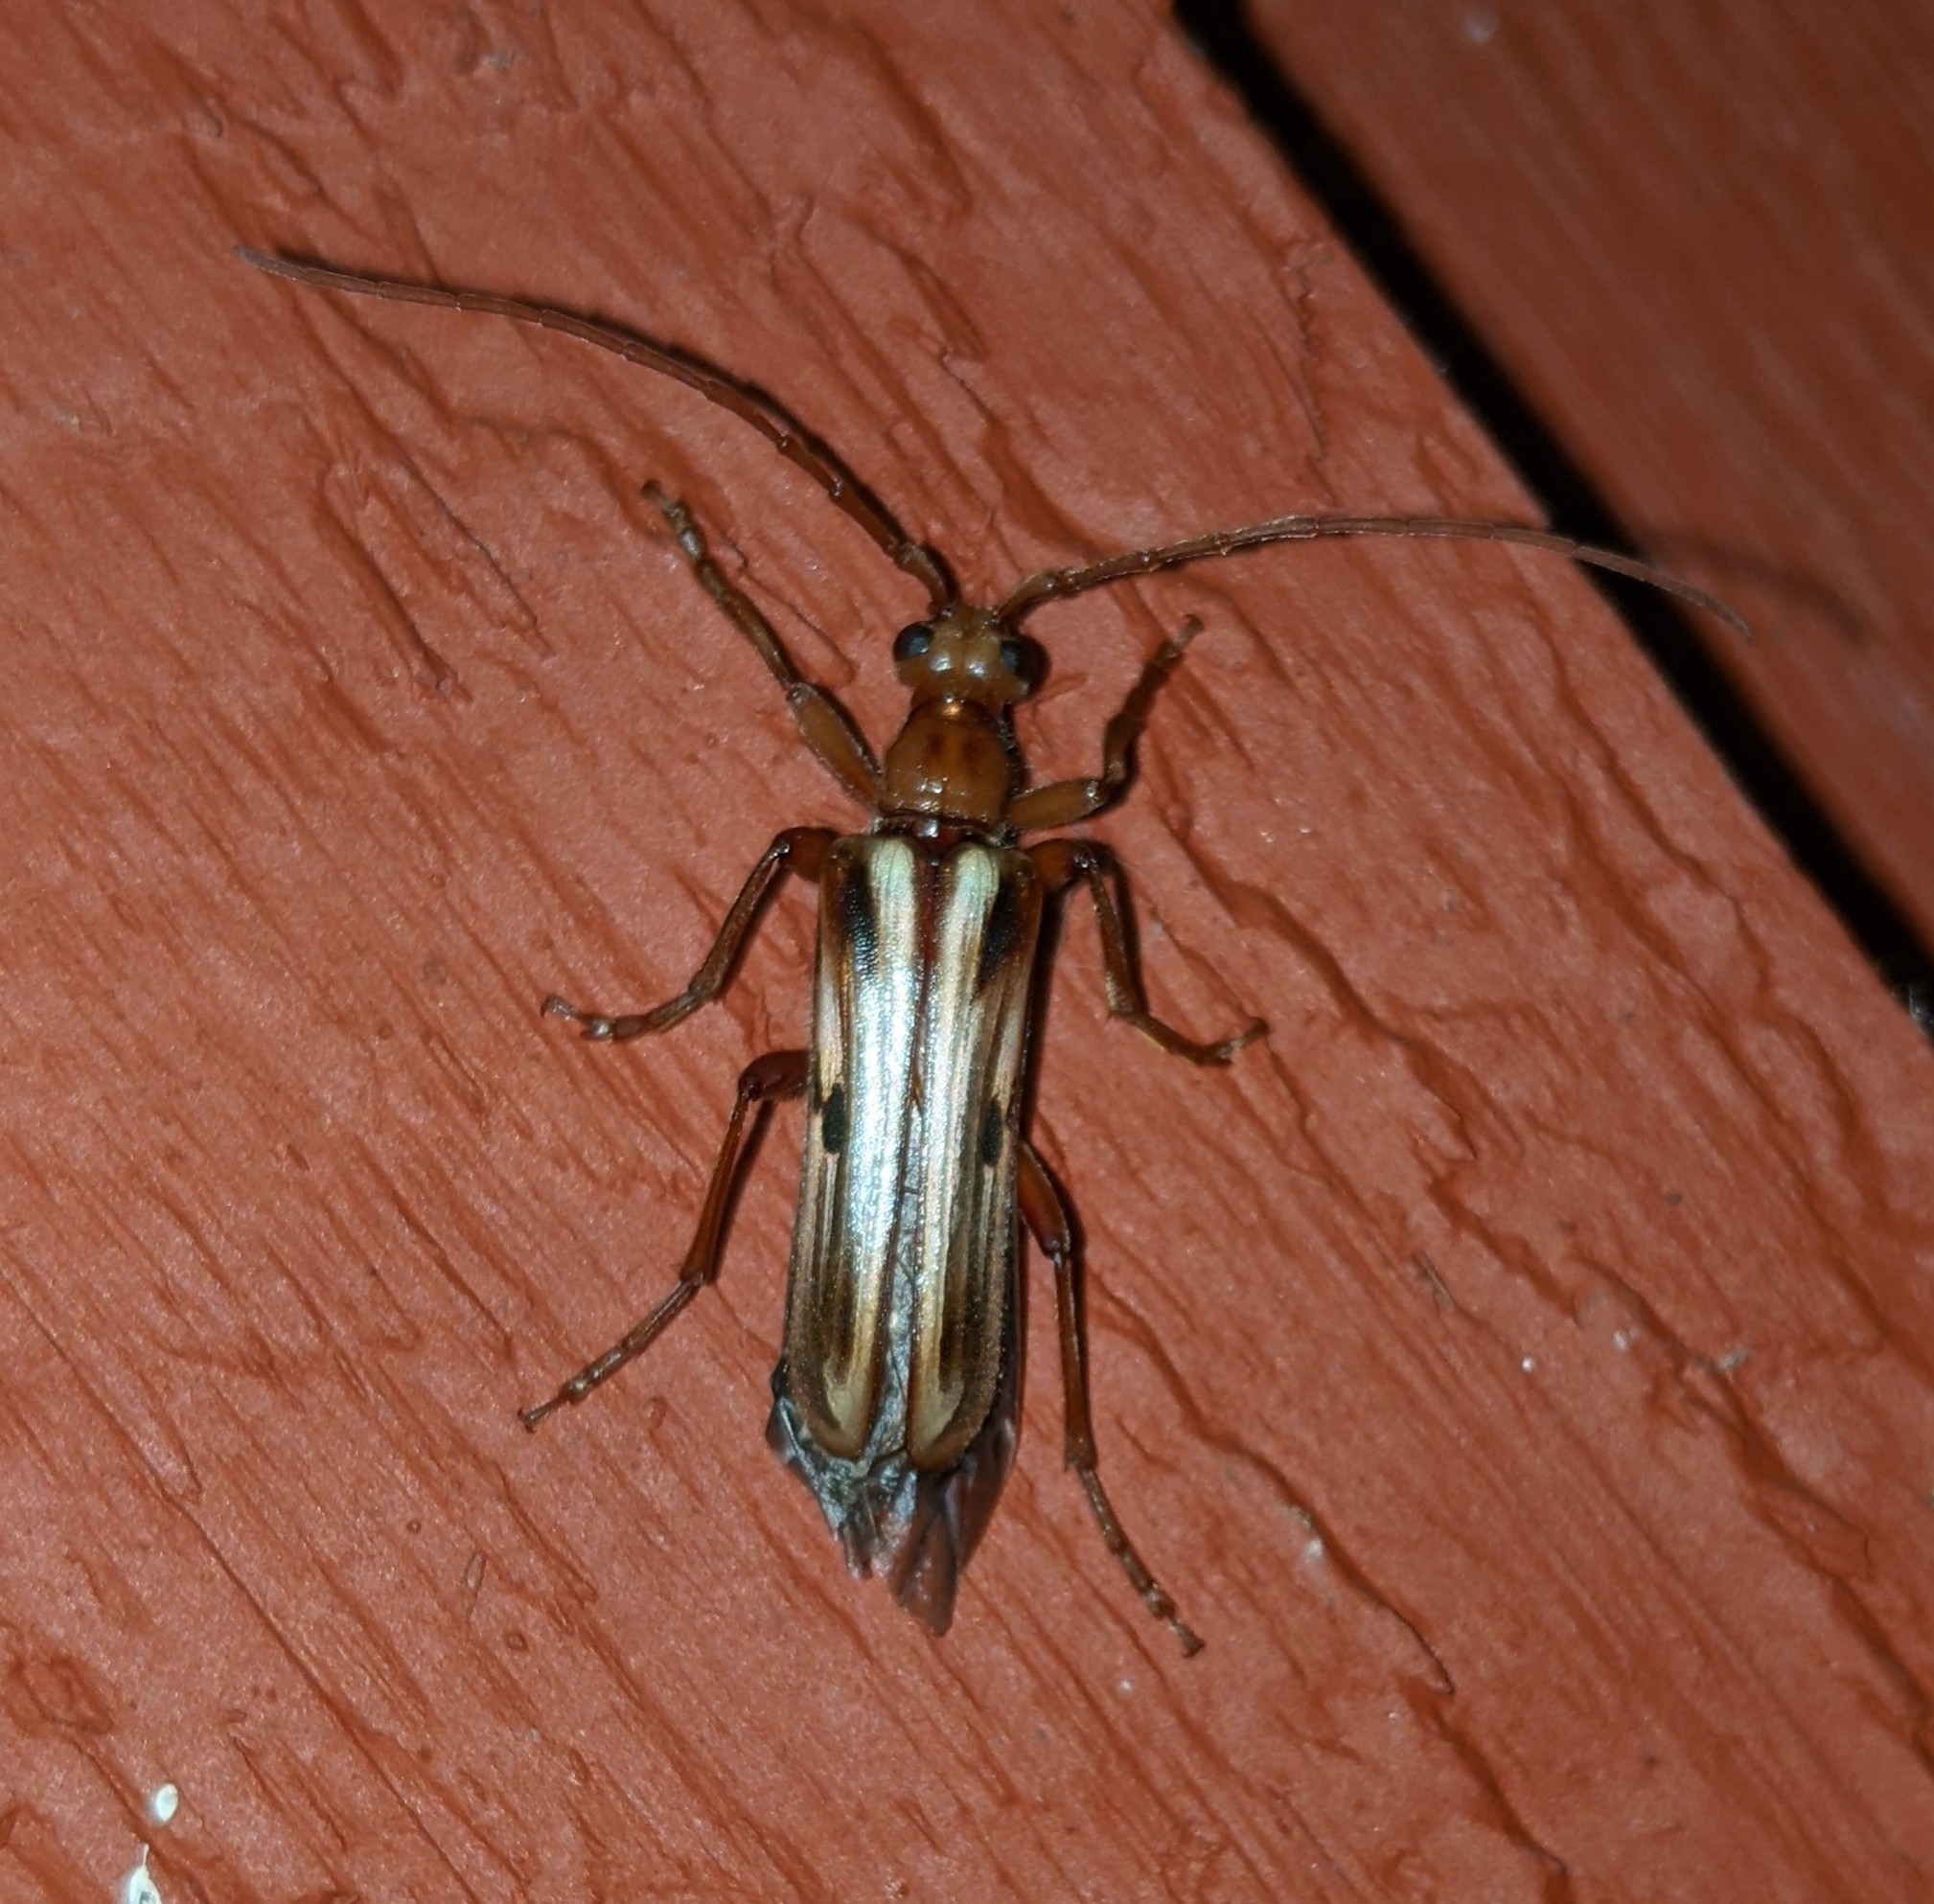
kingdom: Animalia
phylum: Arthropoda
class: Insecta
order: Coleoptera
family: Cerambycidae
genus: Ortholeptura
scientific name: Ortholeptura valida
